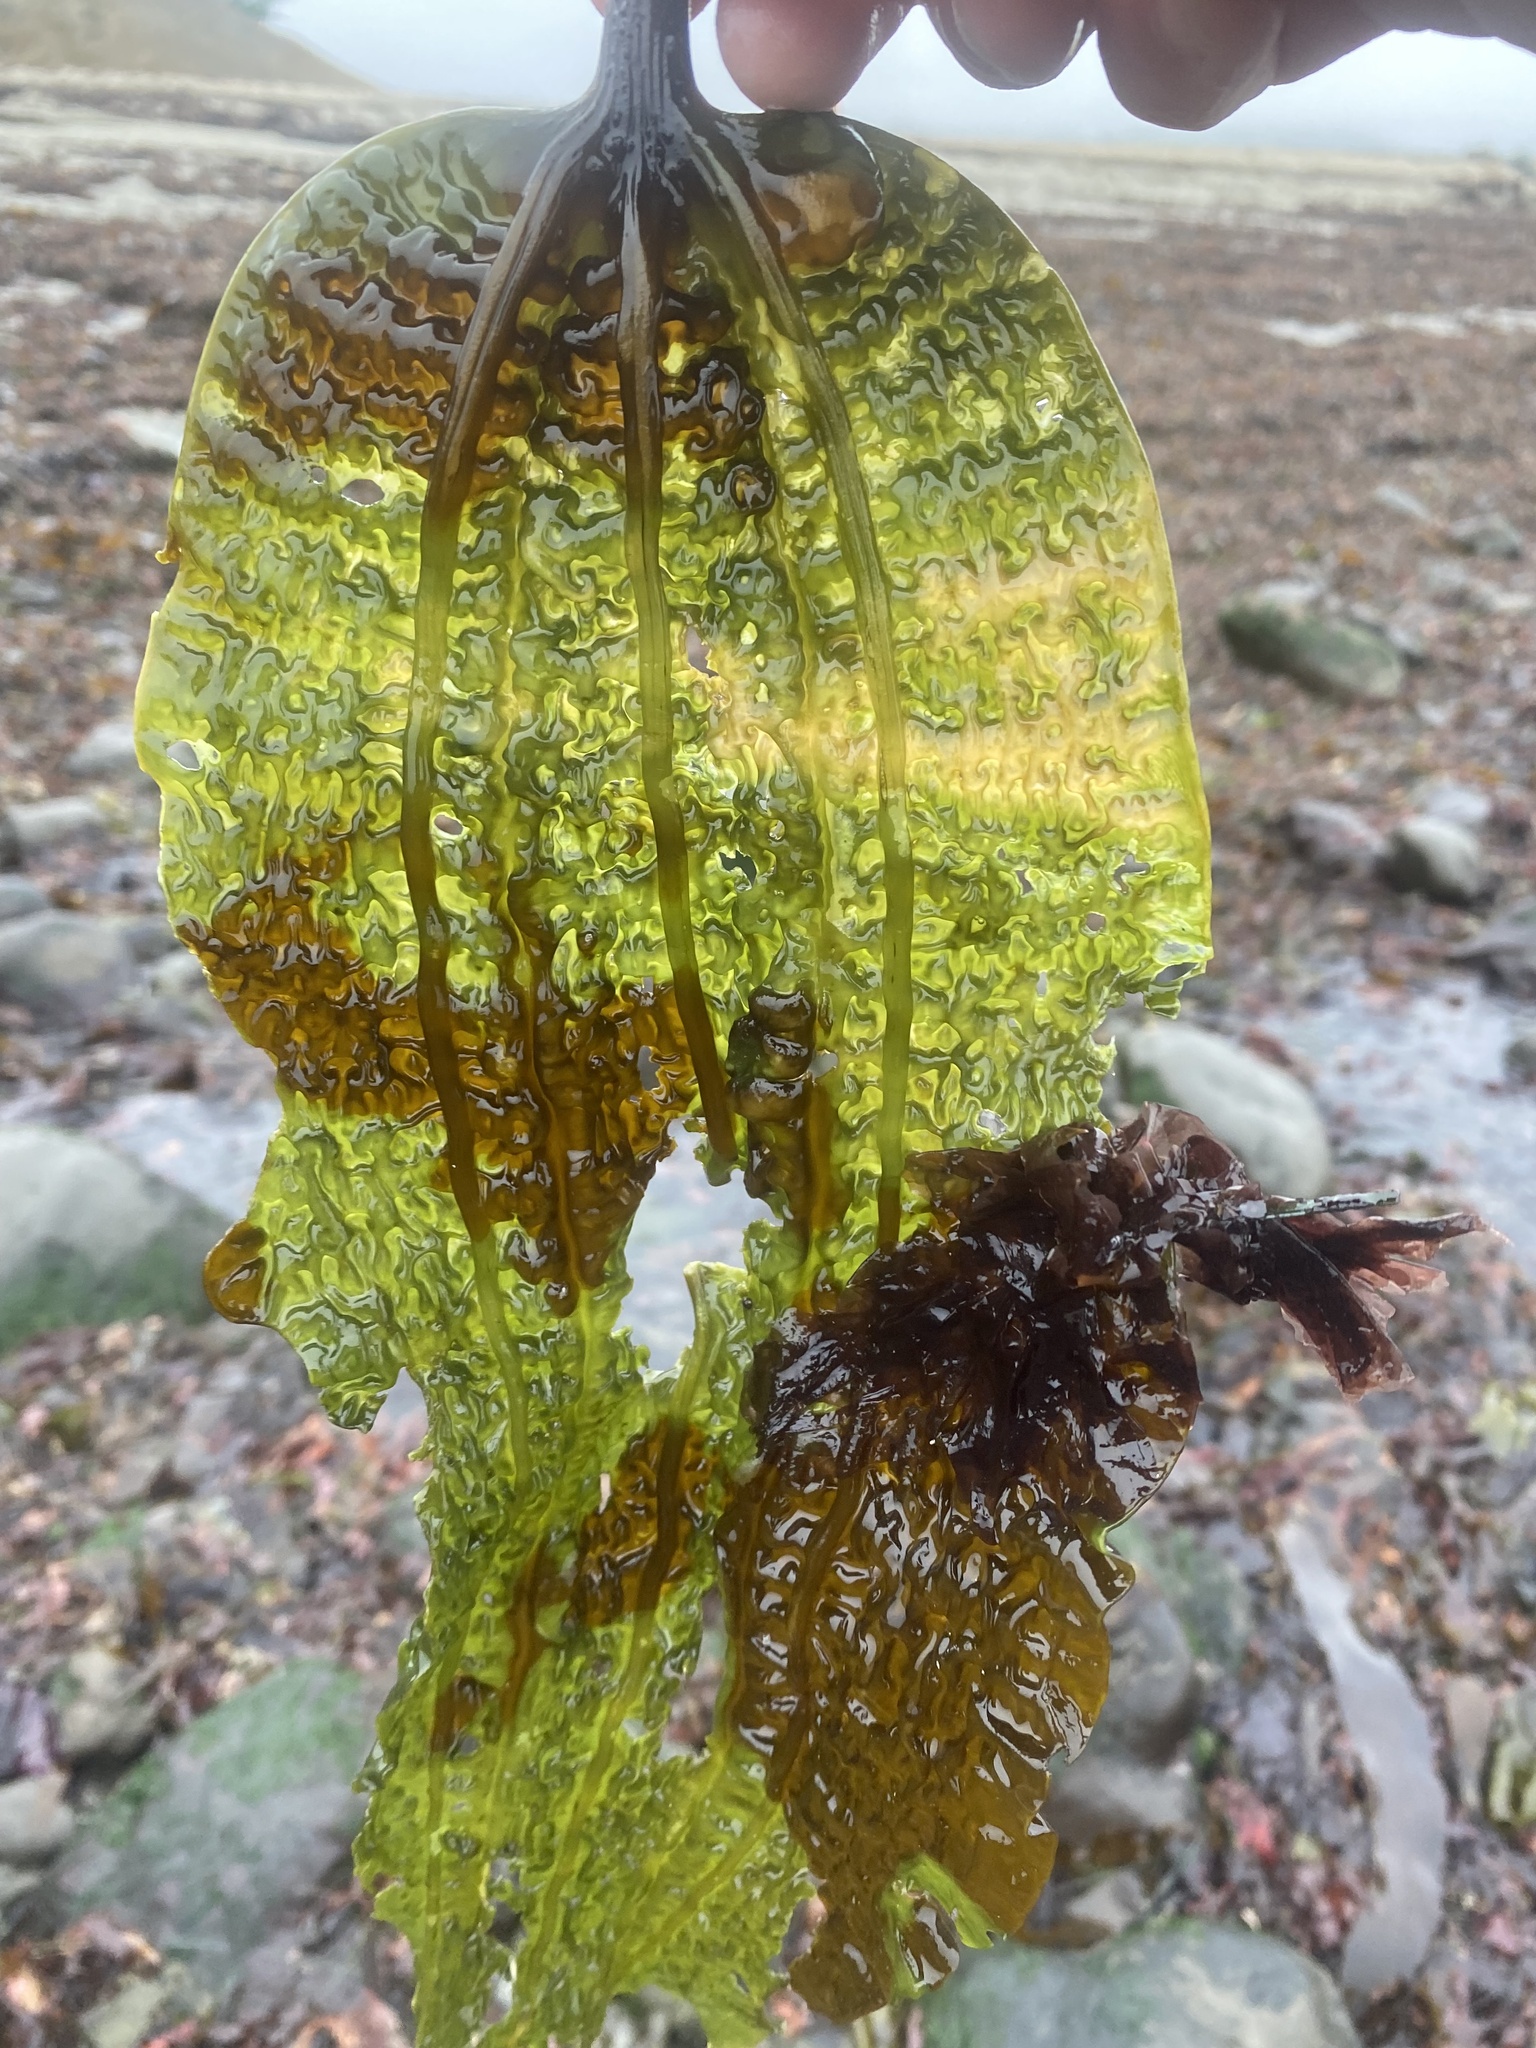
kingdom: Chromista
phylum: Ochrophyta
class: Phaeophyceae
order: Laminariales
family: Costariaceae
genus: Costaria
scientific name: Costaria costata
